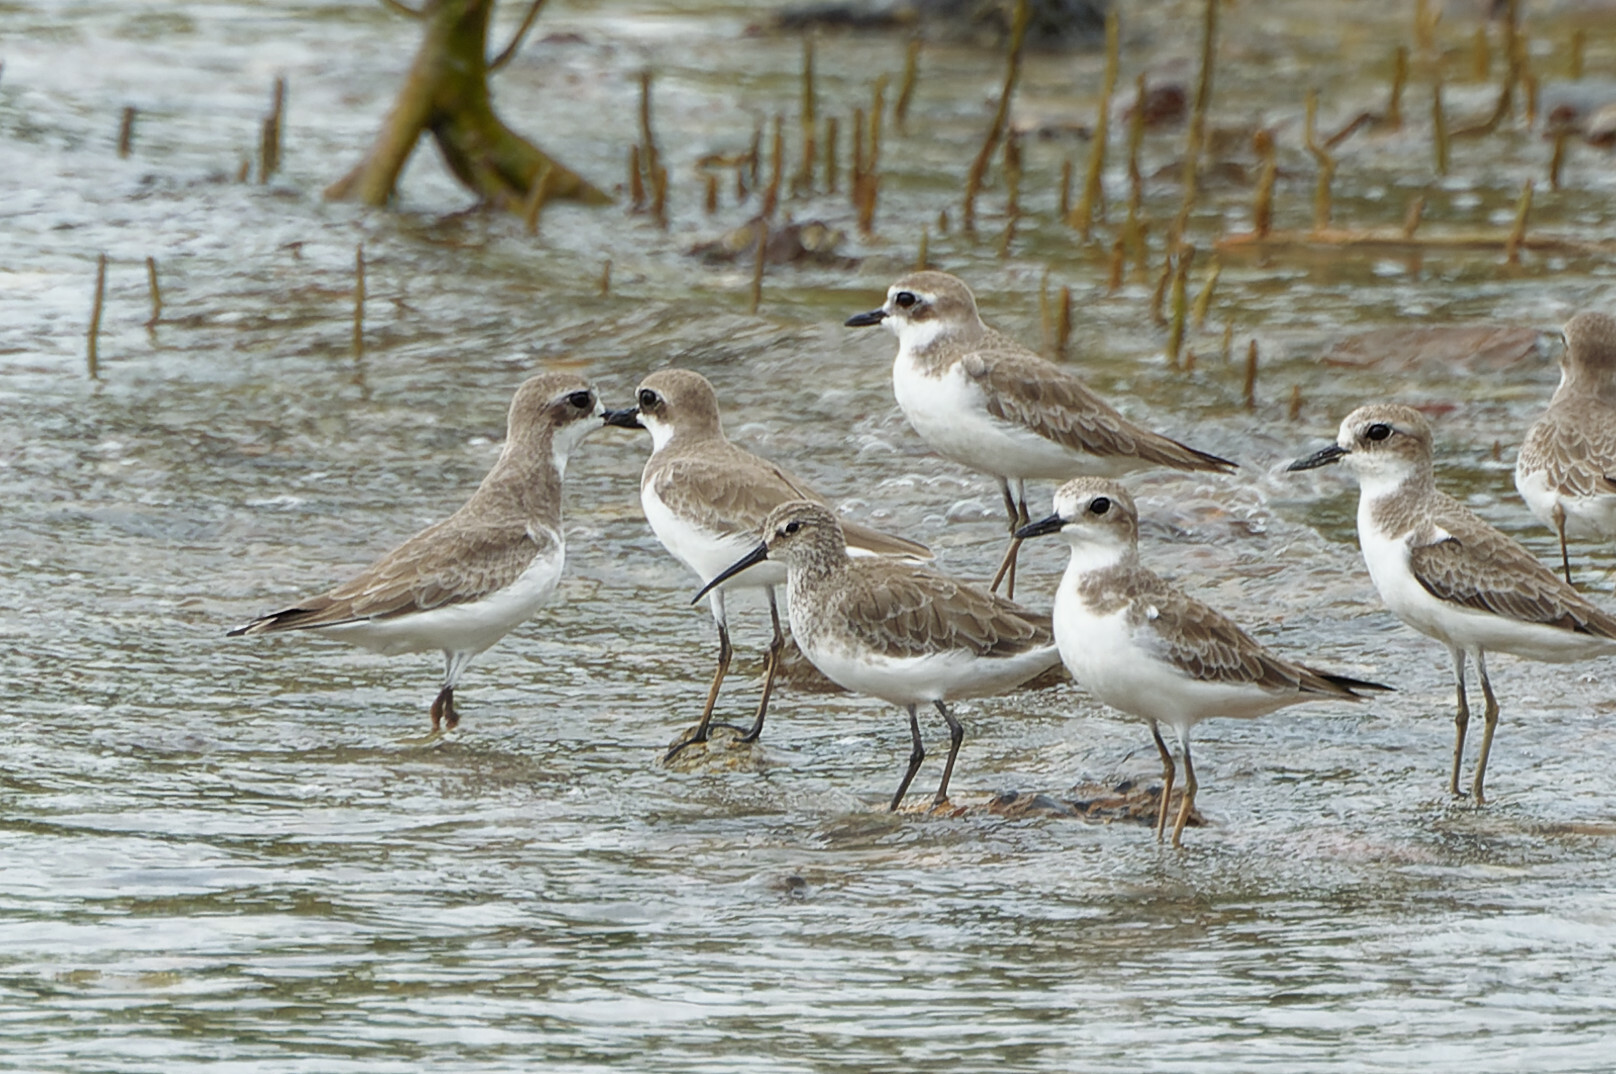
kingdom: Animalia
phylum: Chordata
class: Aves
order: Charadriiformes
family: Scolopacidae
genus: Calidris
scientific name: Calidris ferruginea
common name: Curlew sandpiper
